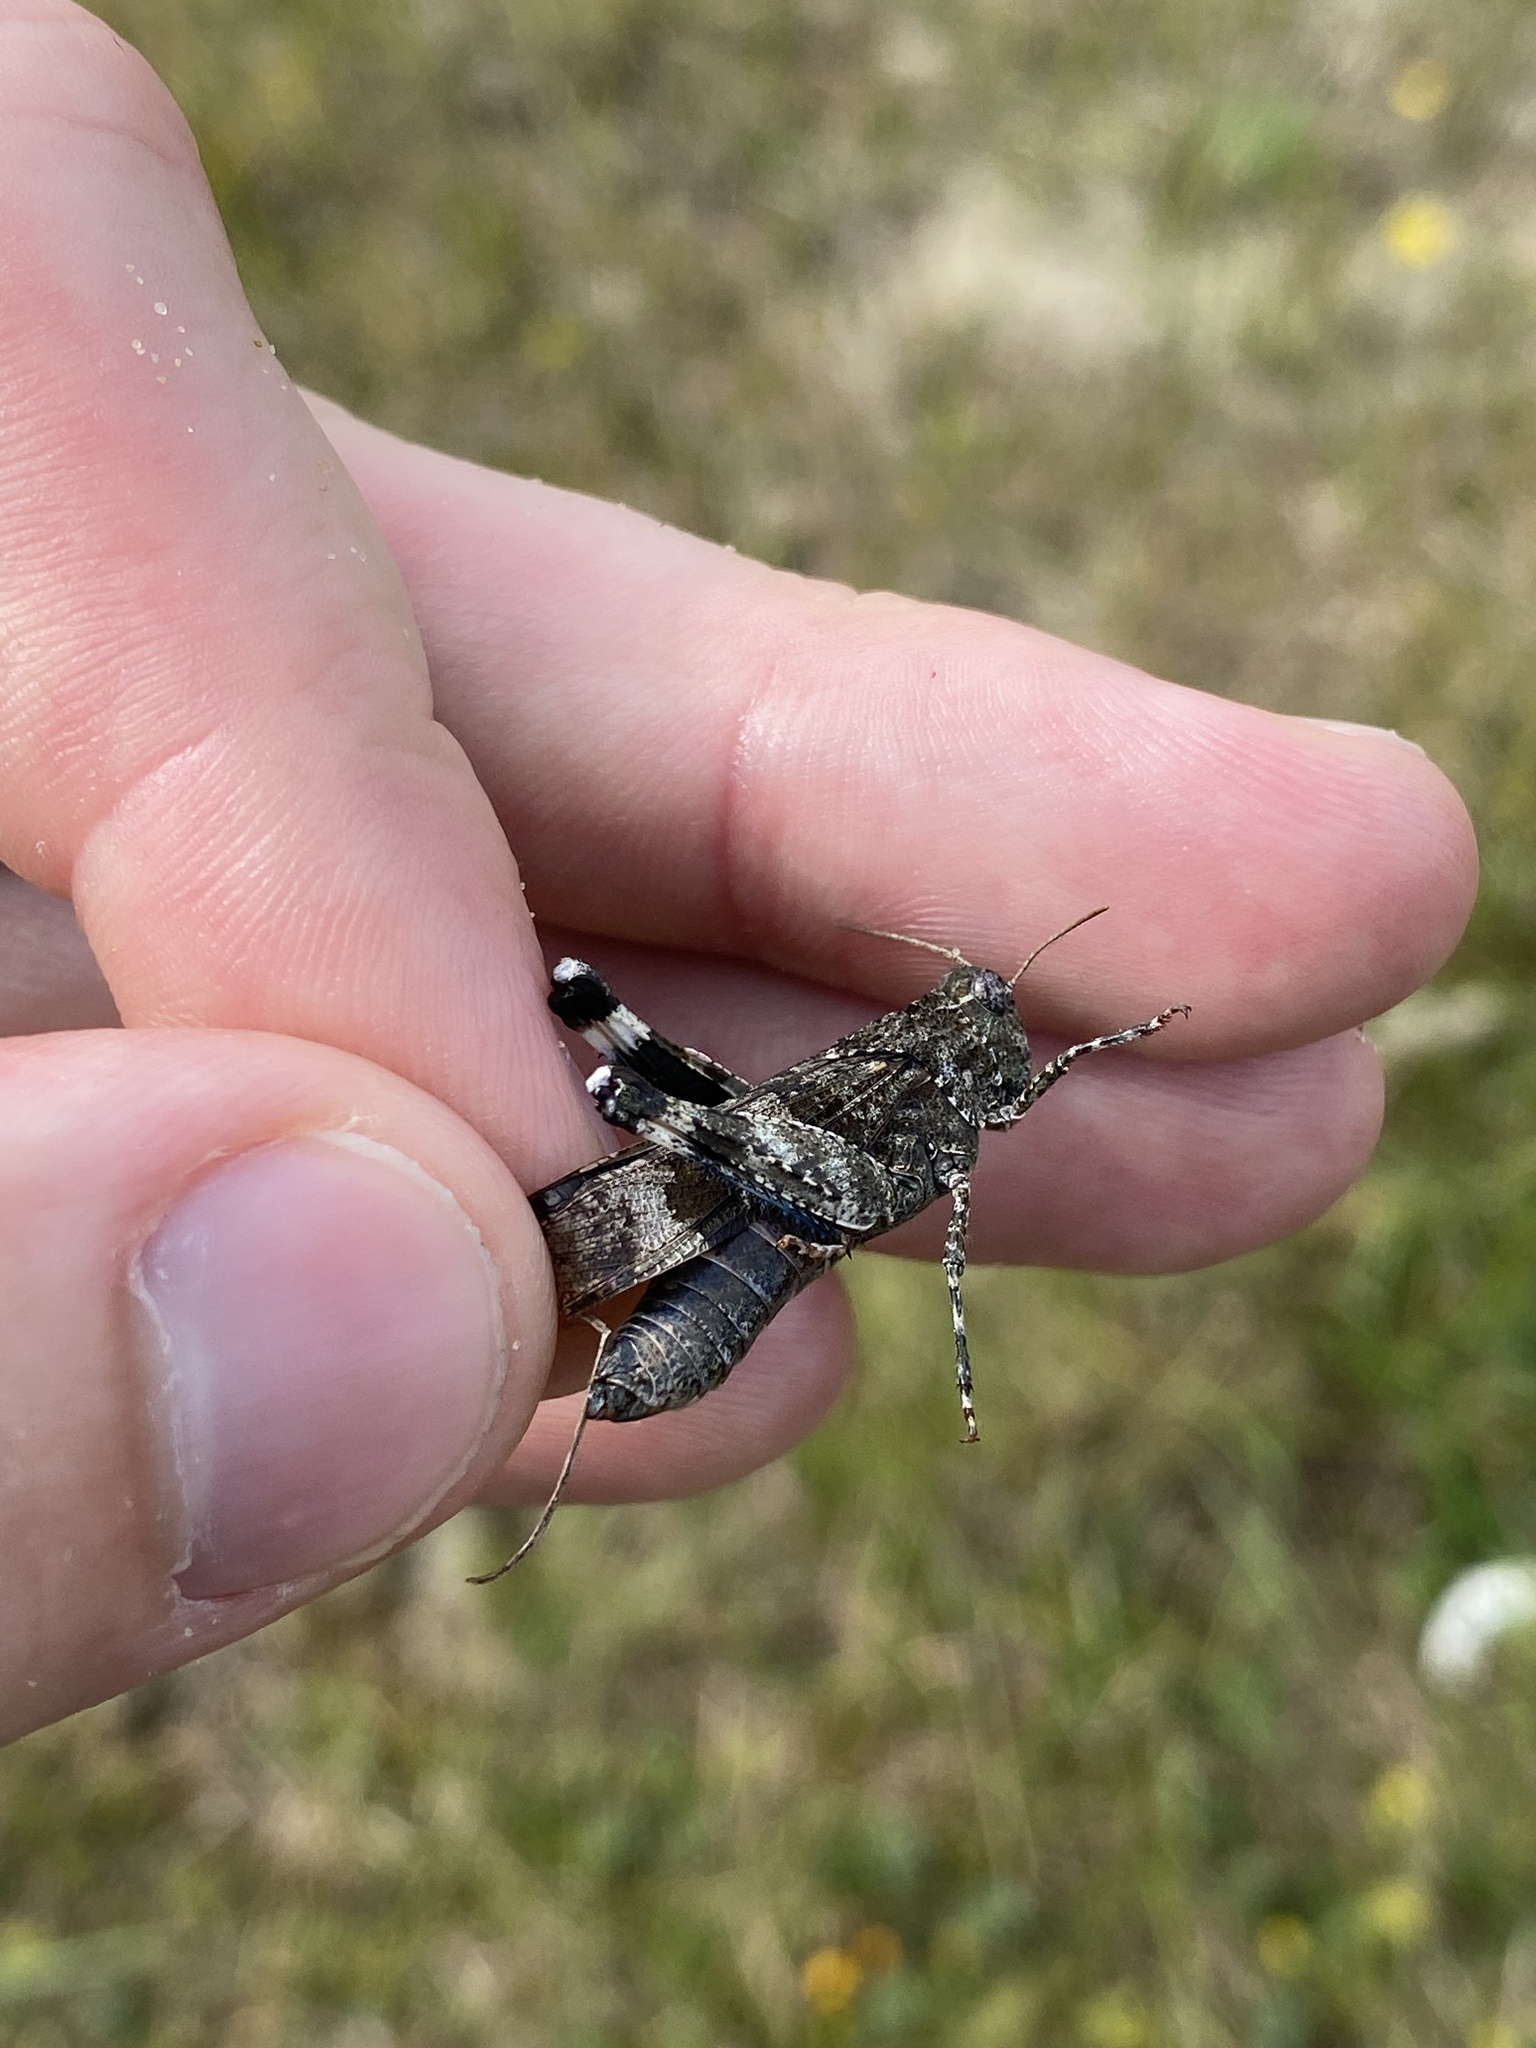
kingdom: Animalia
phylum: Arthropoda
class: Insecta
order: Orthoptera
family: Acrididae
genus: Oedipoda
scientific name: Oedipoda caerulescens
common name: Blue-winged grasshopper
